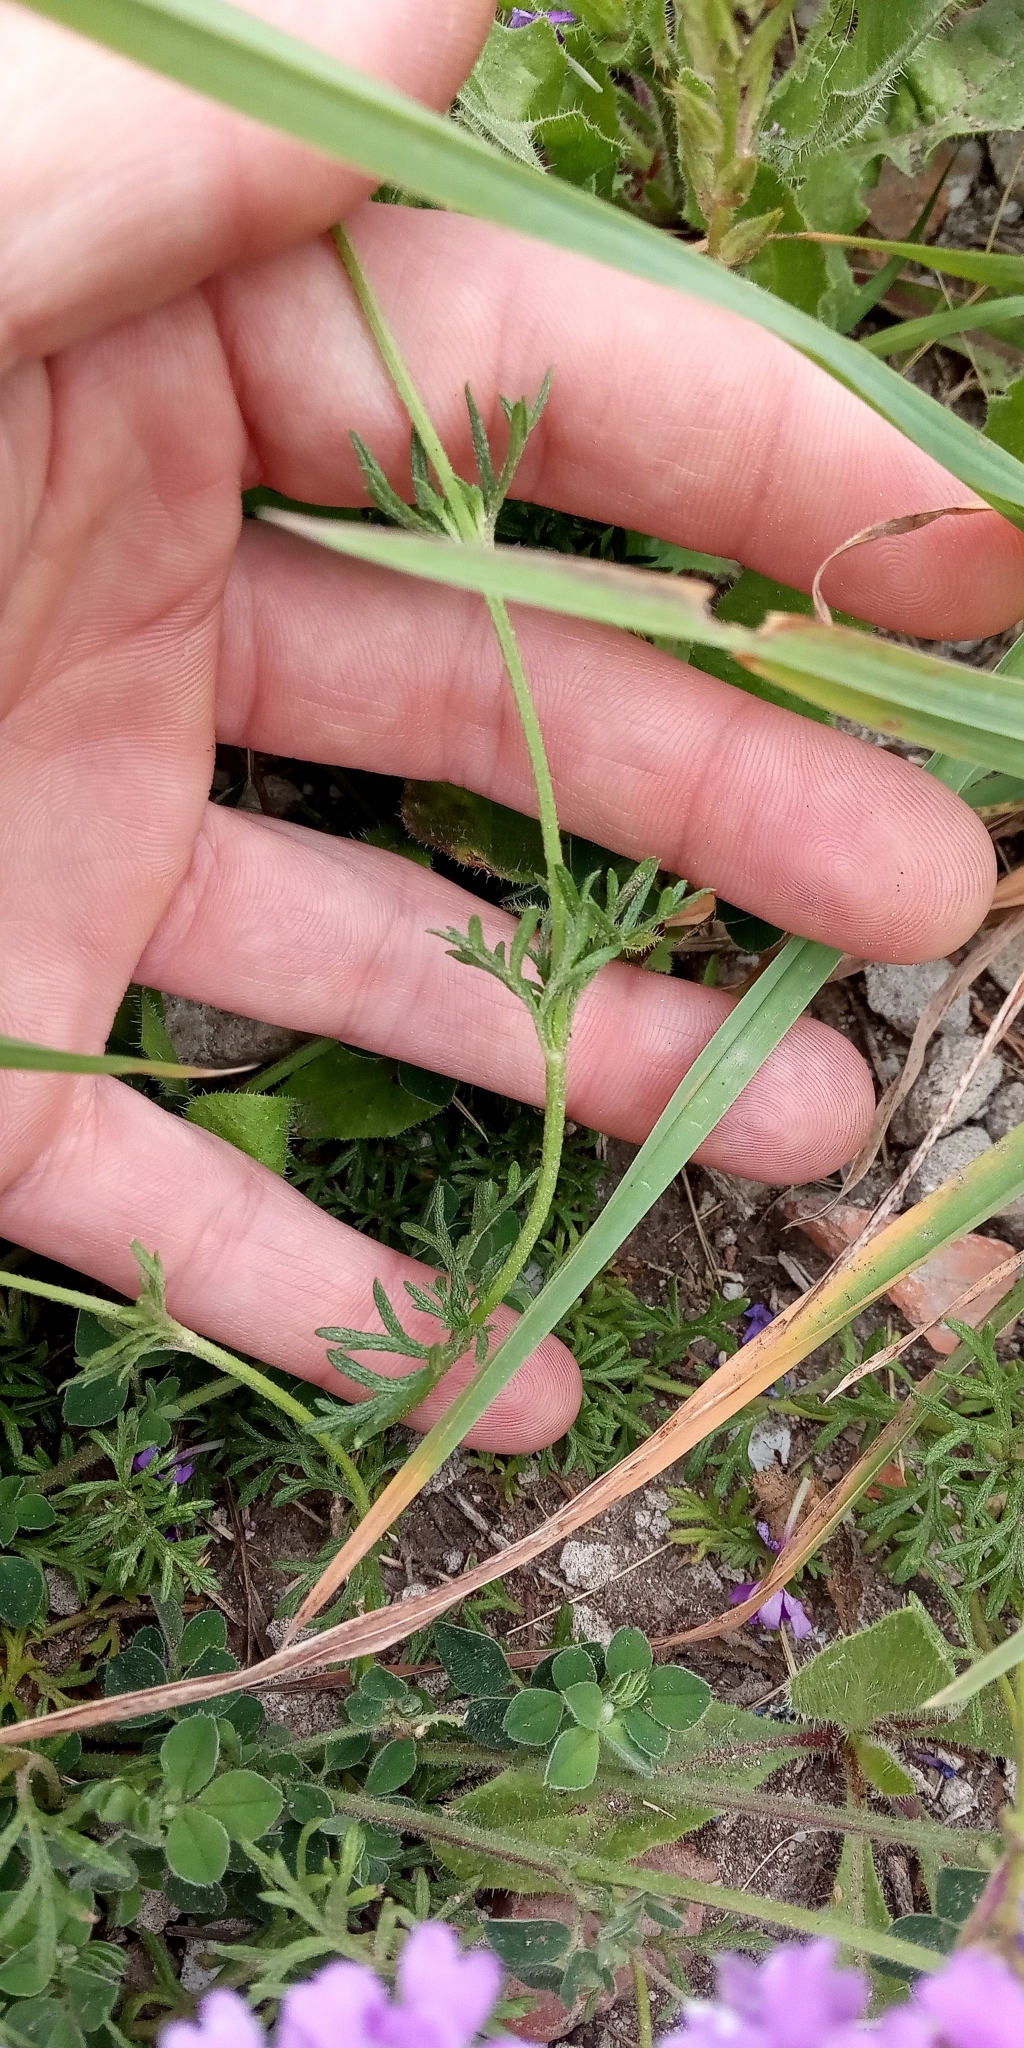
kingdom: Plantae
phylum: Tracheophyta
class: Magnoliopsida
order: Lamiales
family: Verbenaceae
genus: Verbena
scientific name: Verbena tenera
